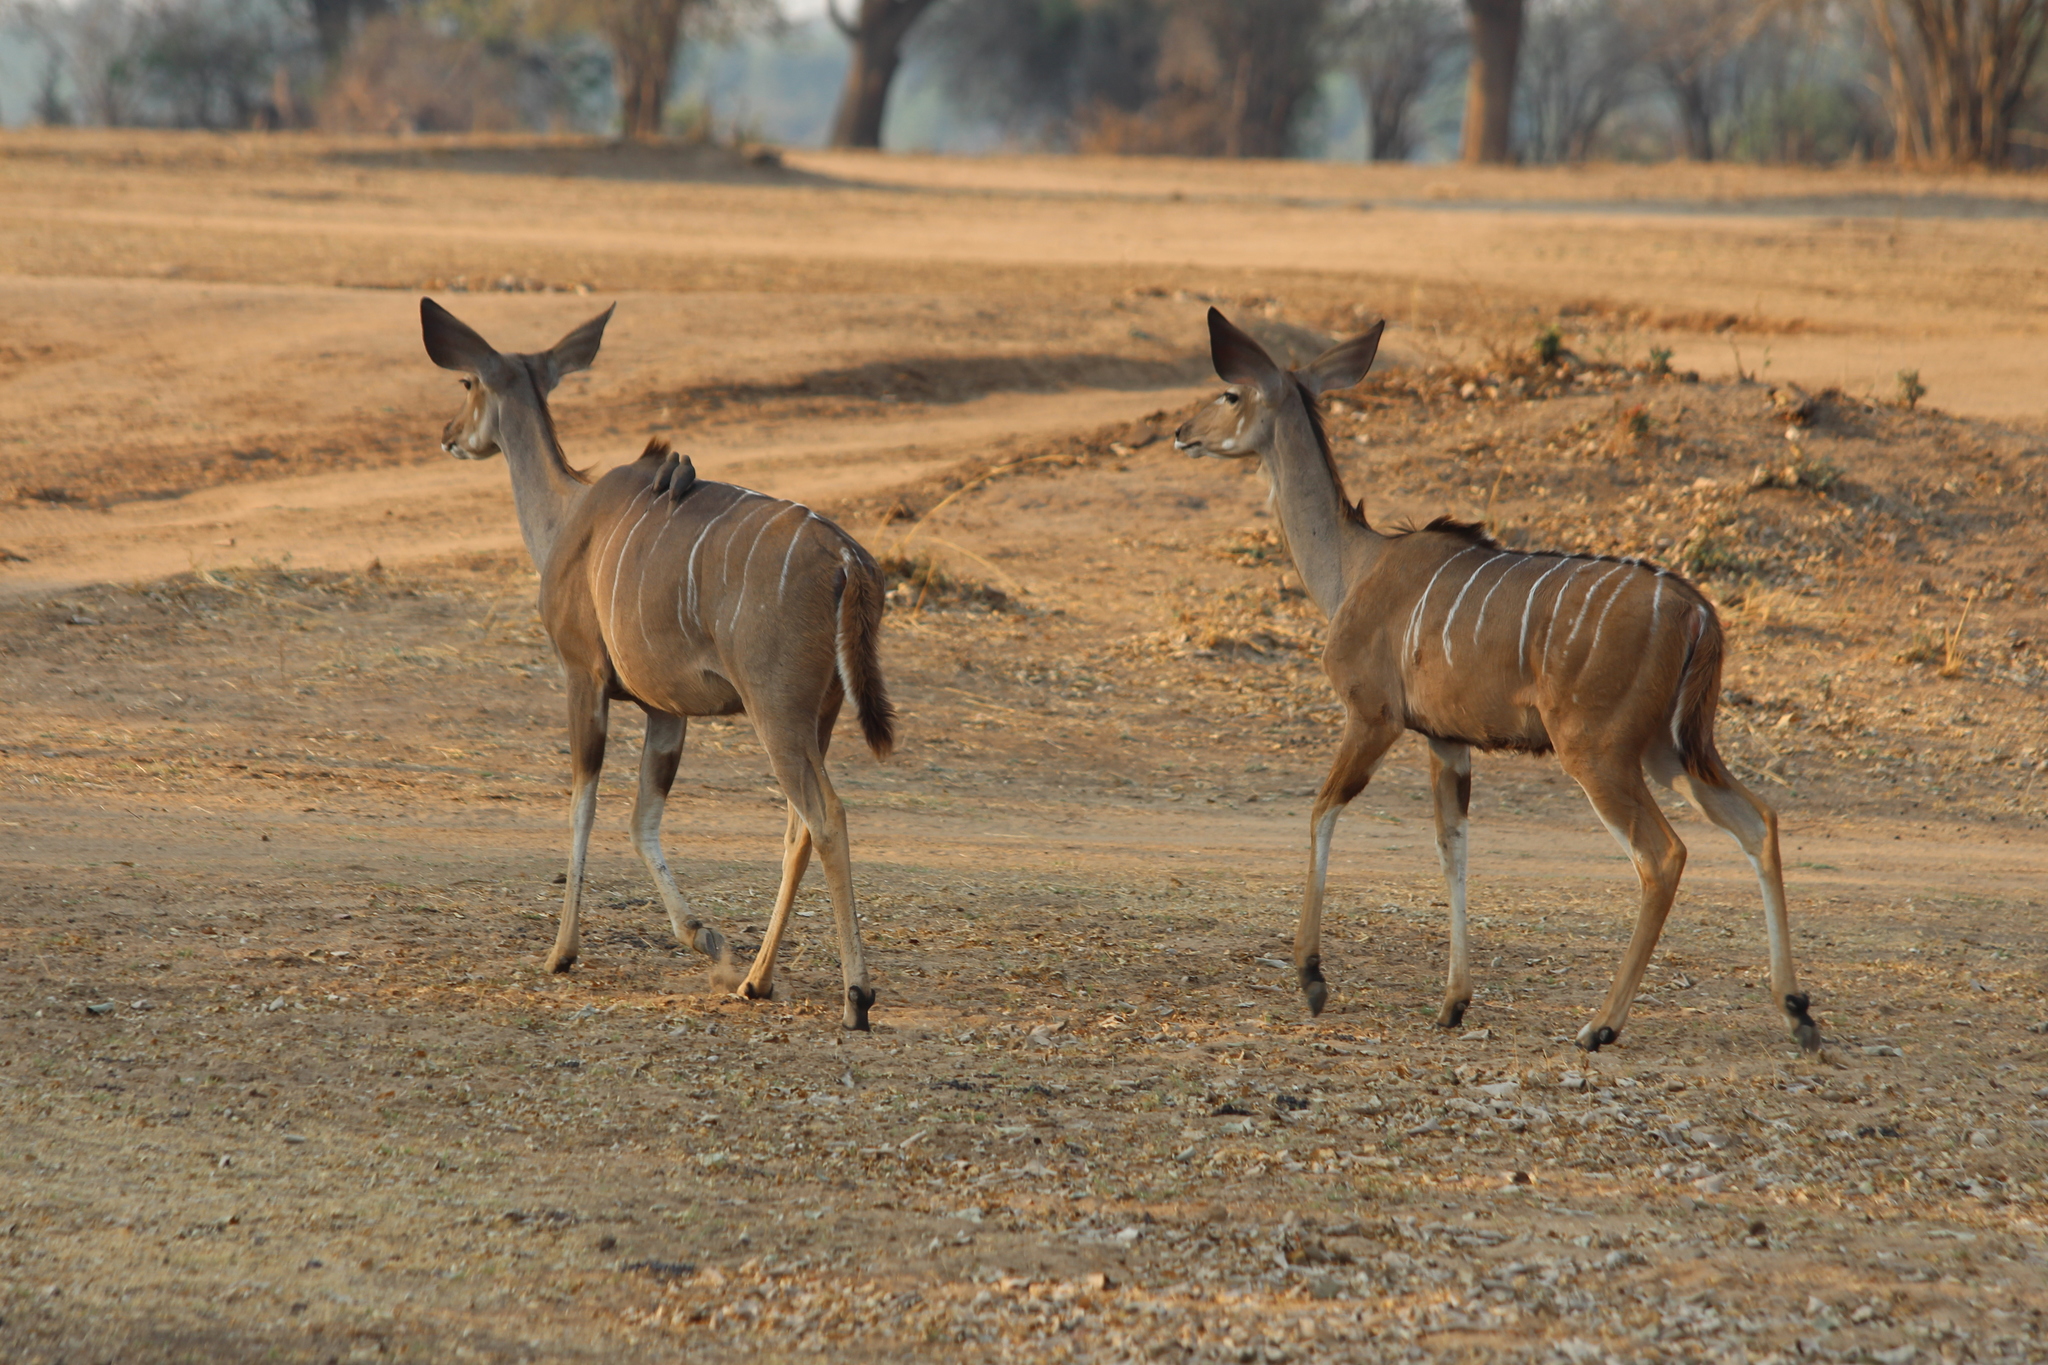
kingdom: Animalia
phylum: Chordata
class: Mammalia
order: Artiodactyla
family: Bovidae
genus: Tragelaphus
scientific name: Tragelaphus strepsiceros
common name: Greater kudu
